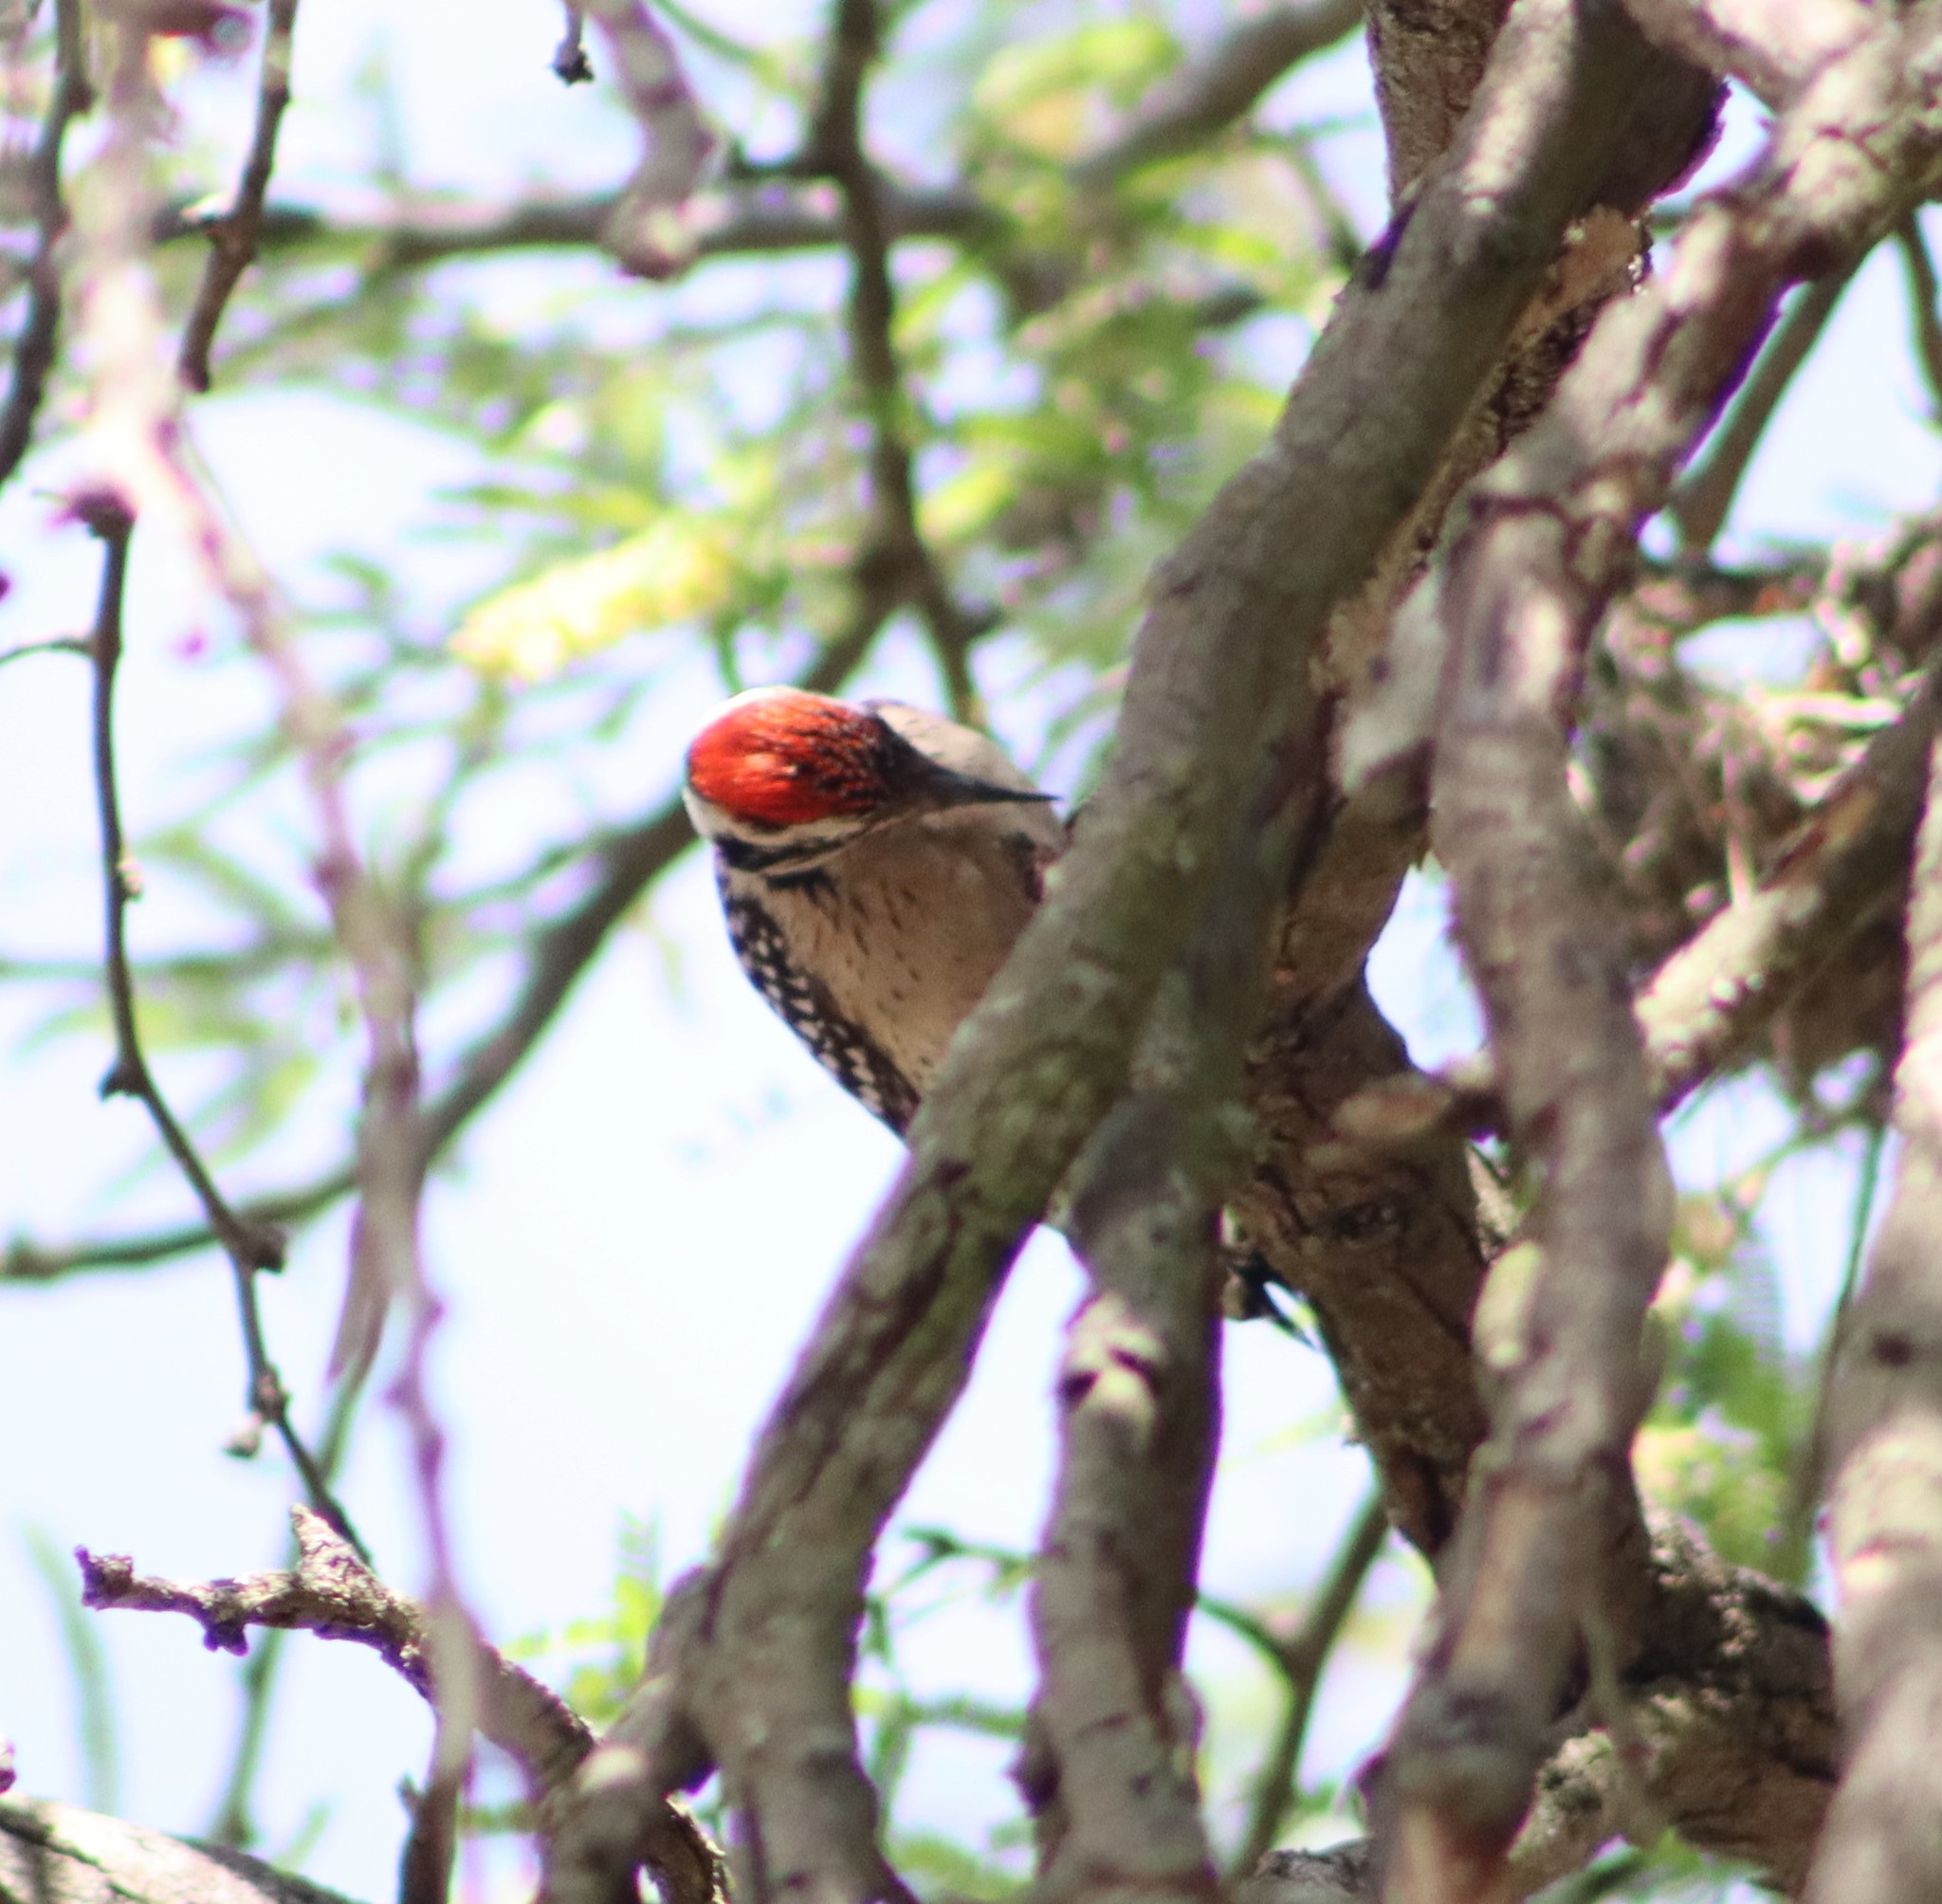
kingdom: Animalia
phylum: Chordata
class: Aves
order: Piciformes
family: Picidae
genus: Dryobates
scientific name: Dryobates scalaris
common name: Ladder-backed woodpecker
